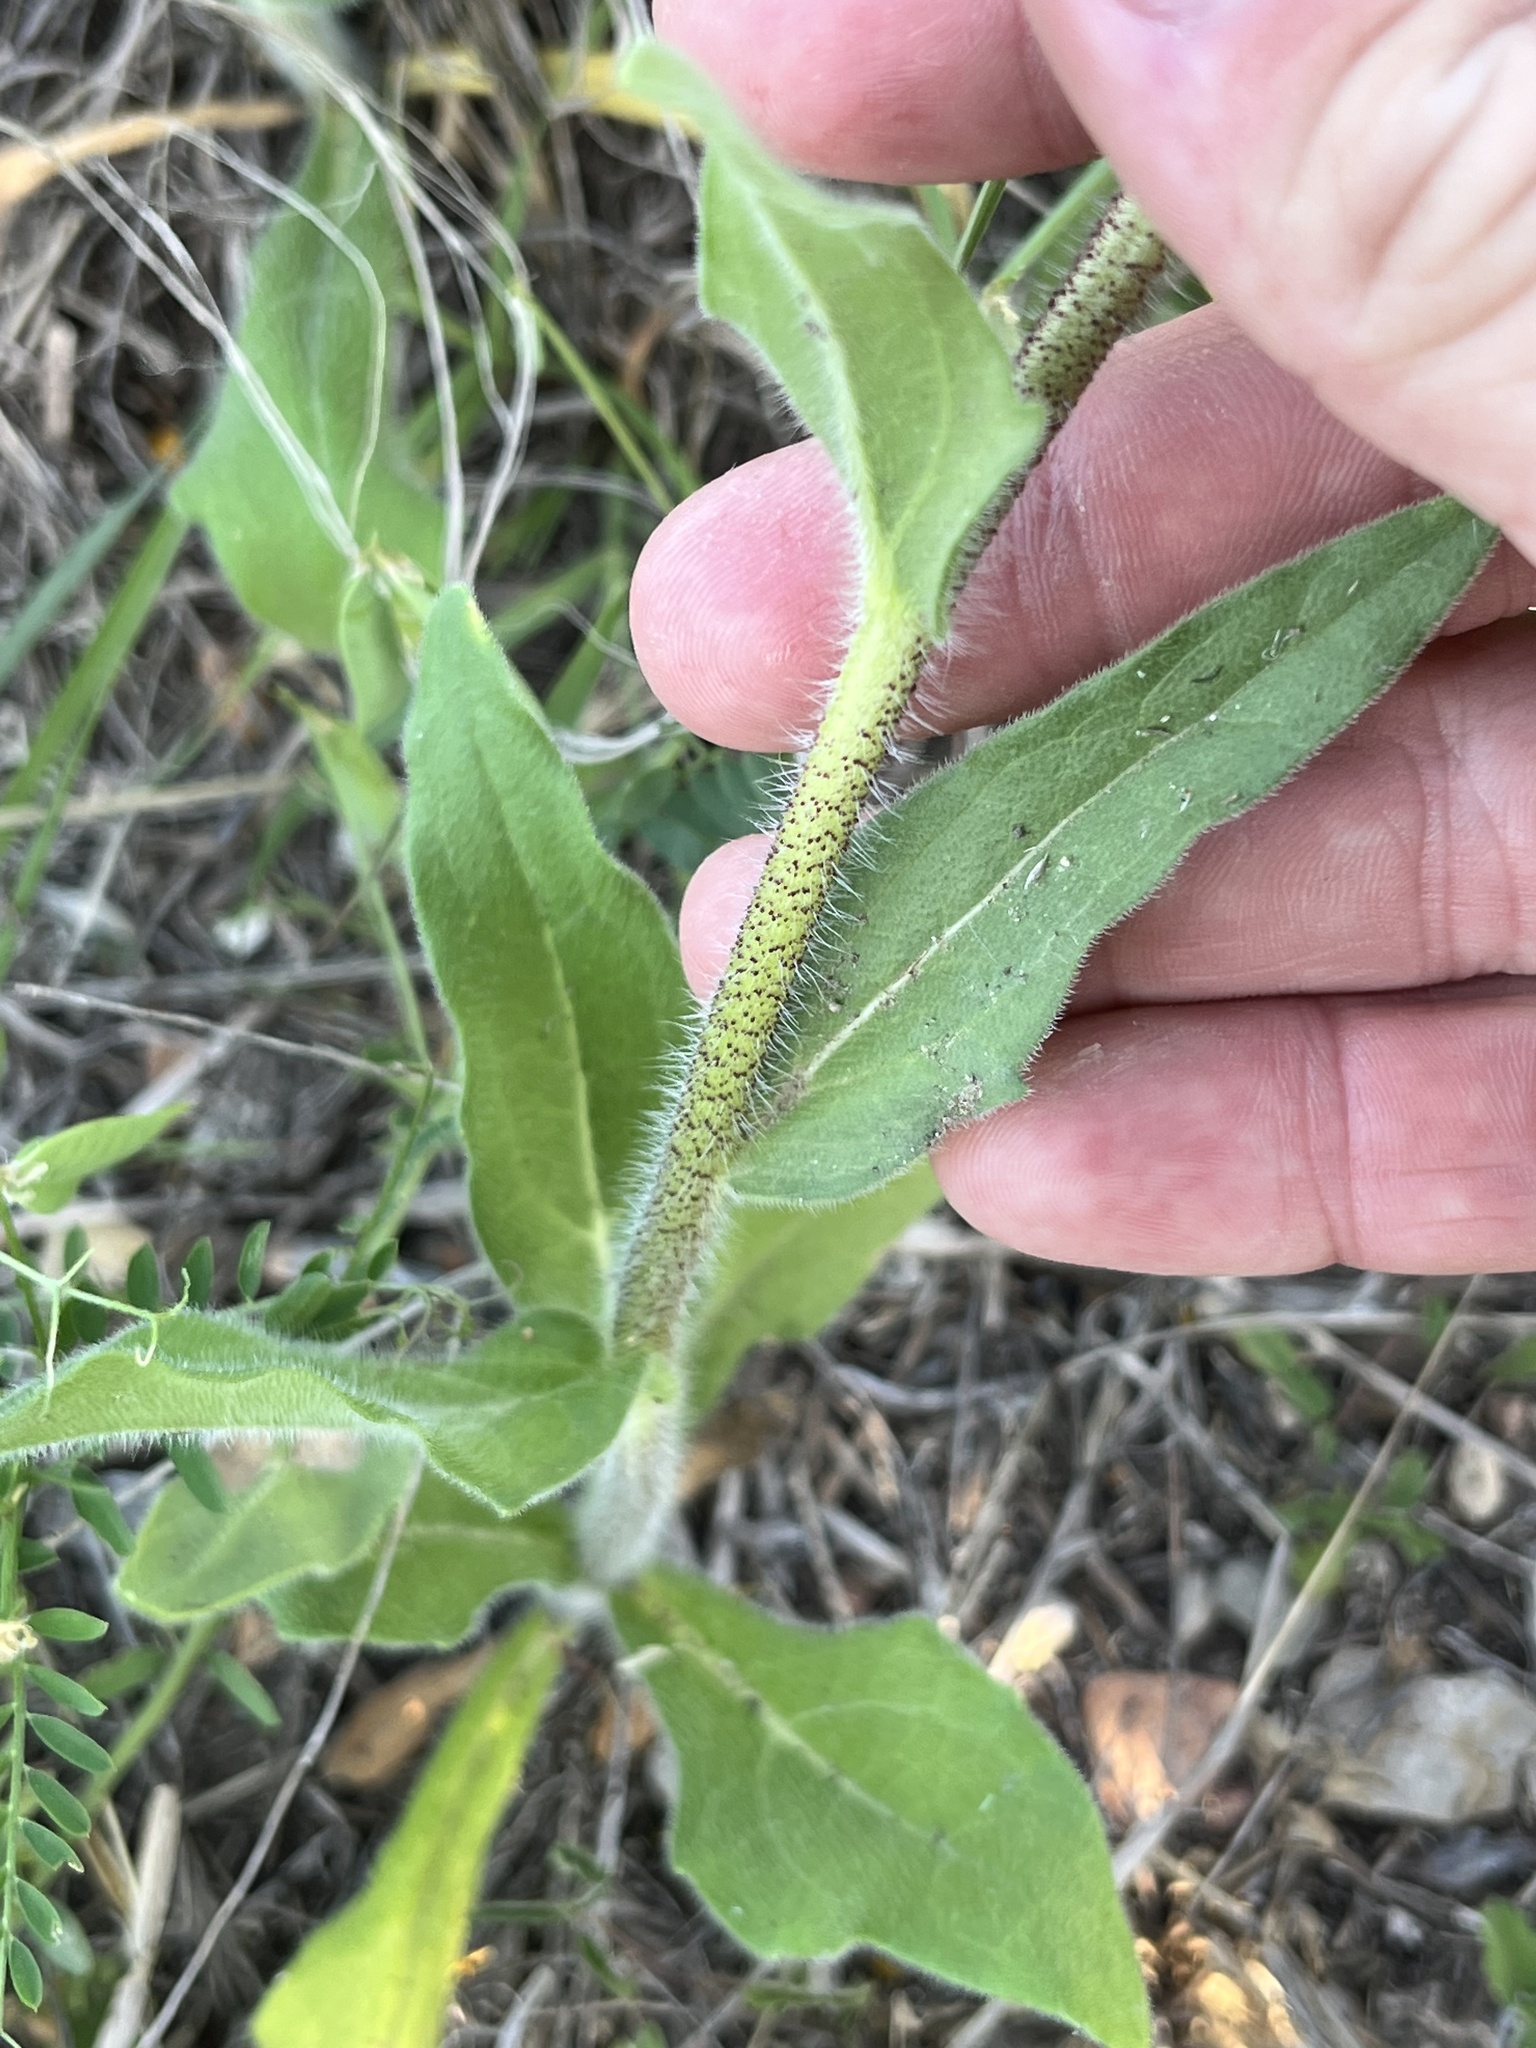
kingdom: Plantae
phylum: Tracheophyta
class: Magnoliopsida
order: Asterales
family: Asteraceae
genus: Lindheimera
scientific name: Lindheimera texana
